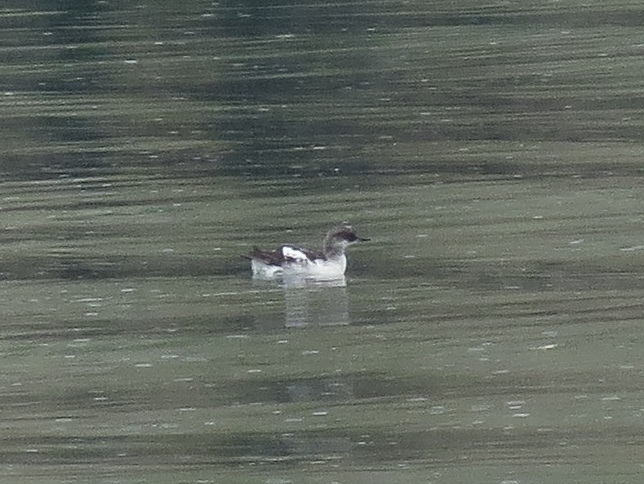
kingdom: Animalia
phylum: Chordata
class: Aves
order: Charadriiformes
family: Alcidae
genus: Cepphus
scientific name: Cepphus columba
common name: Pigeon guillemot
